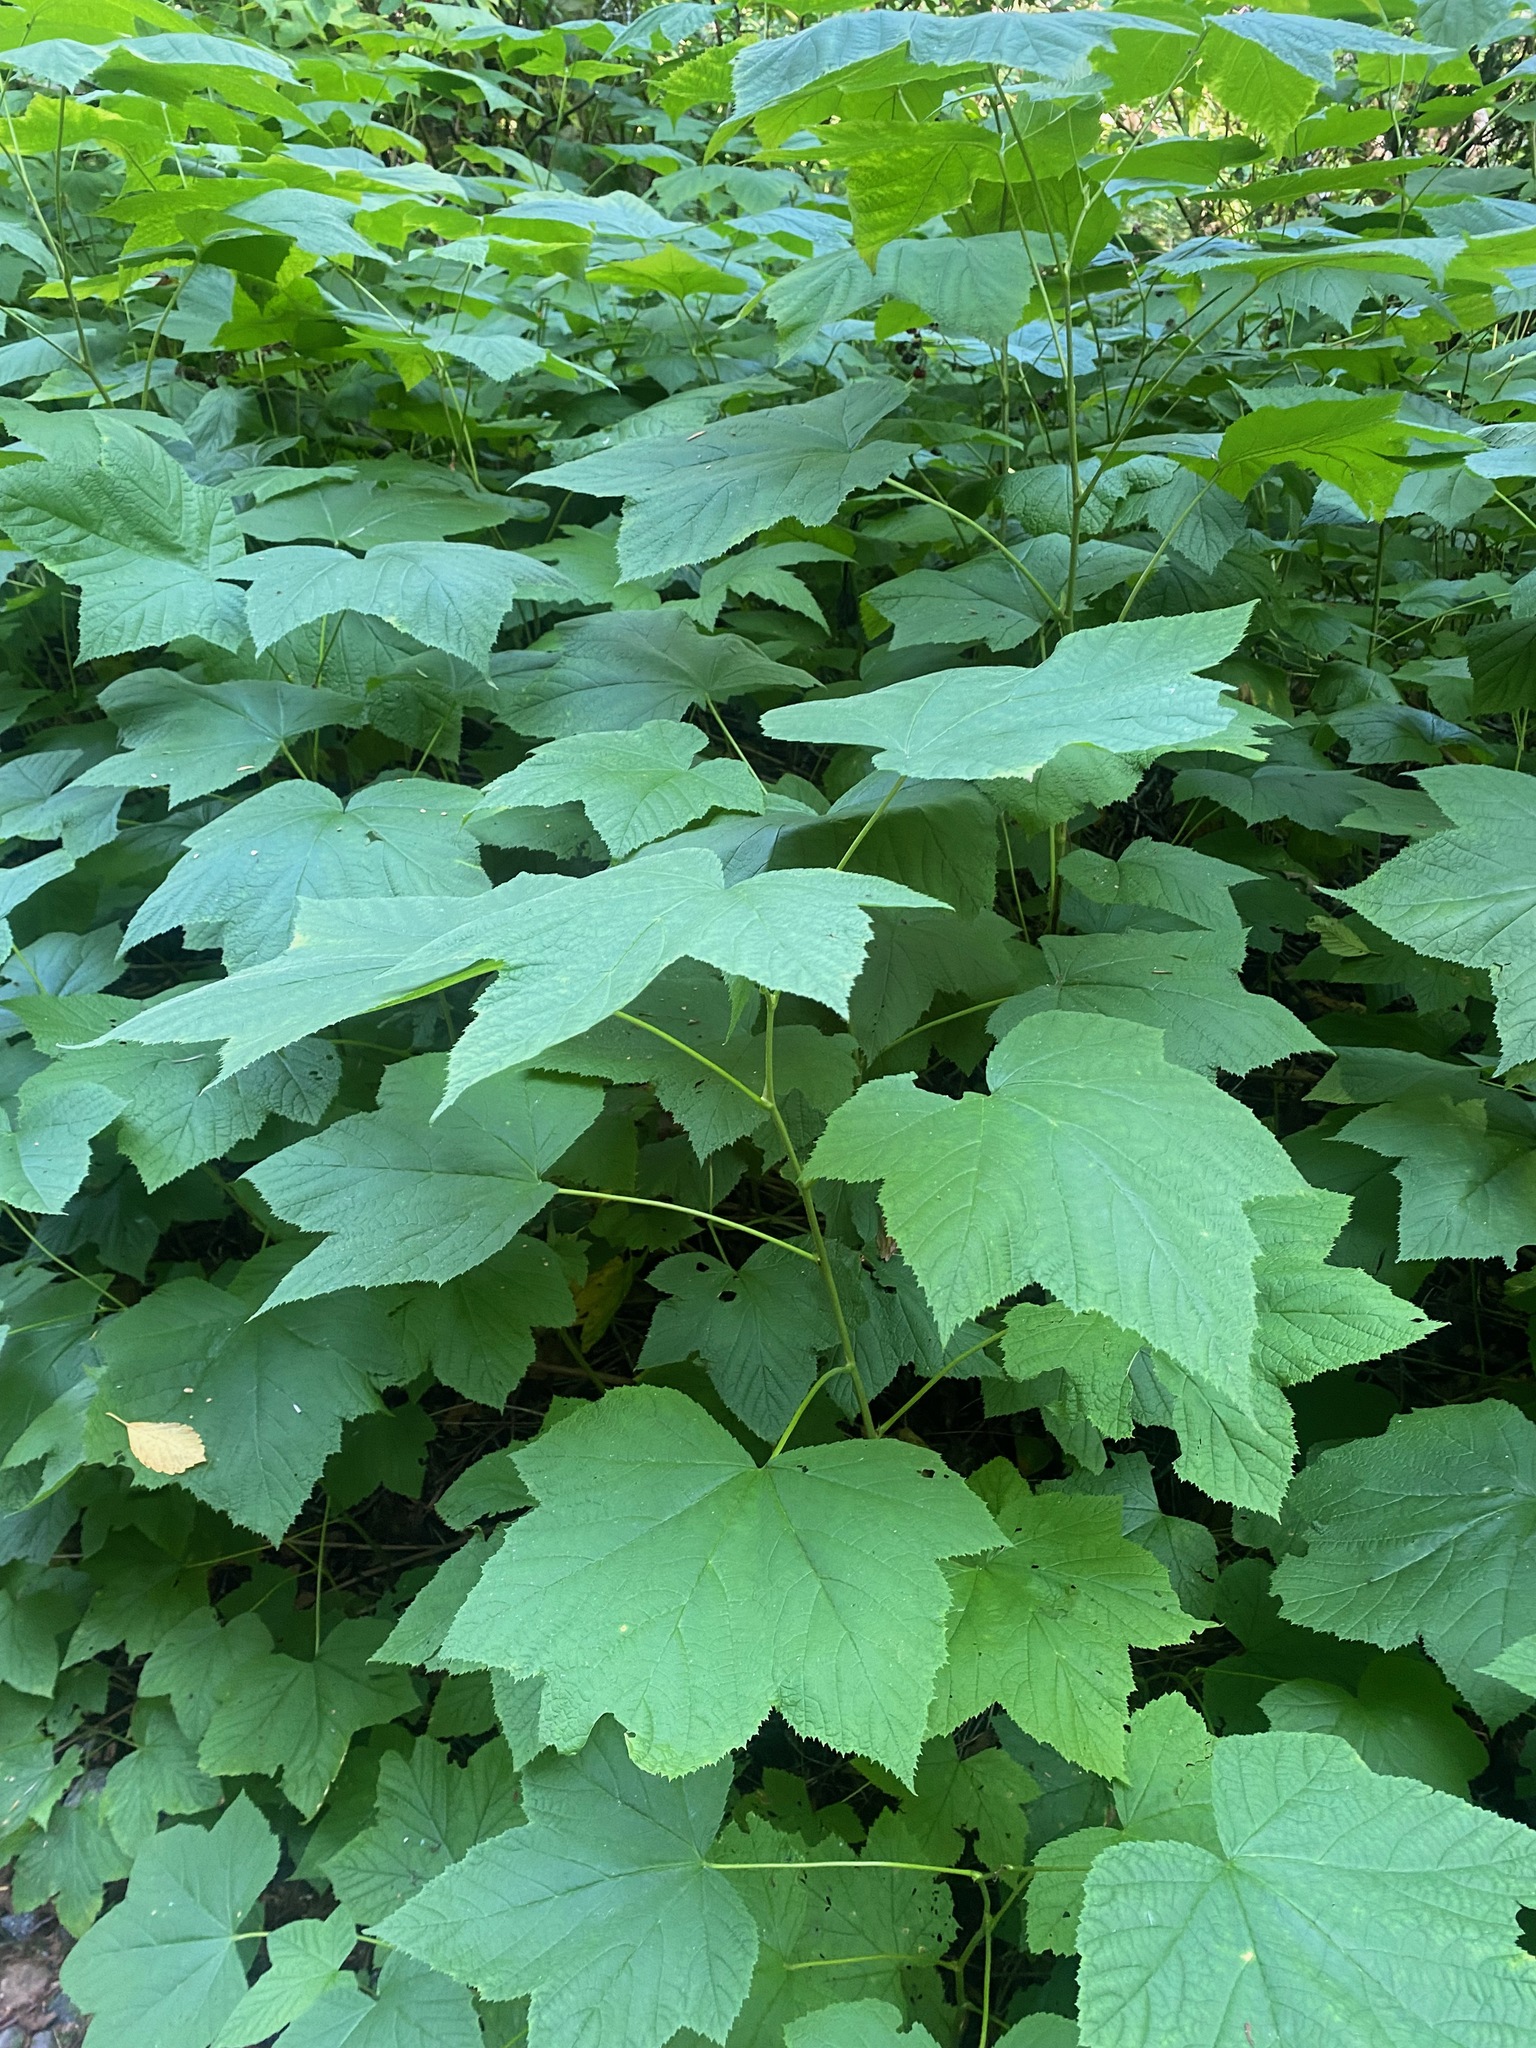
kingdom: Plantae
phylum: Tracheophyta
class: Magnoliopsida
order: Rosales
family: Rosaceae
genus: Rubus
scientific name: Rubus parviflorus
